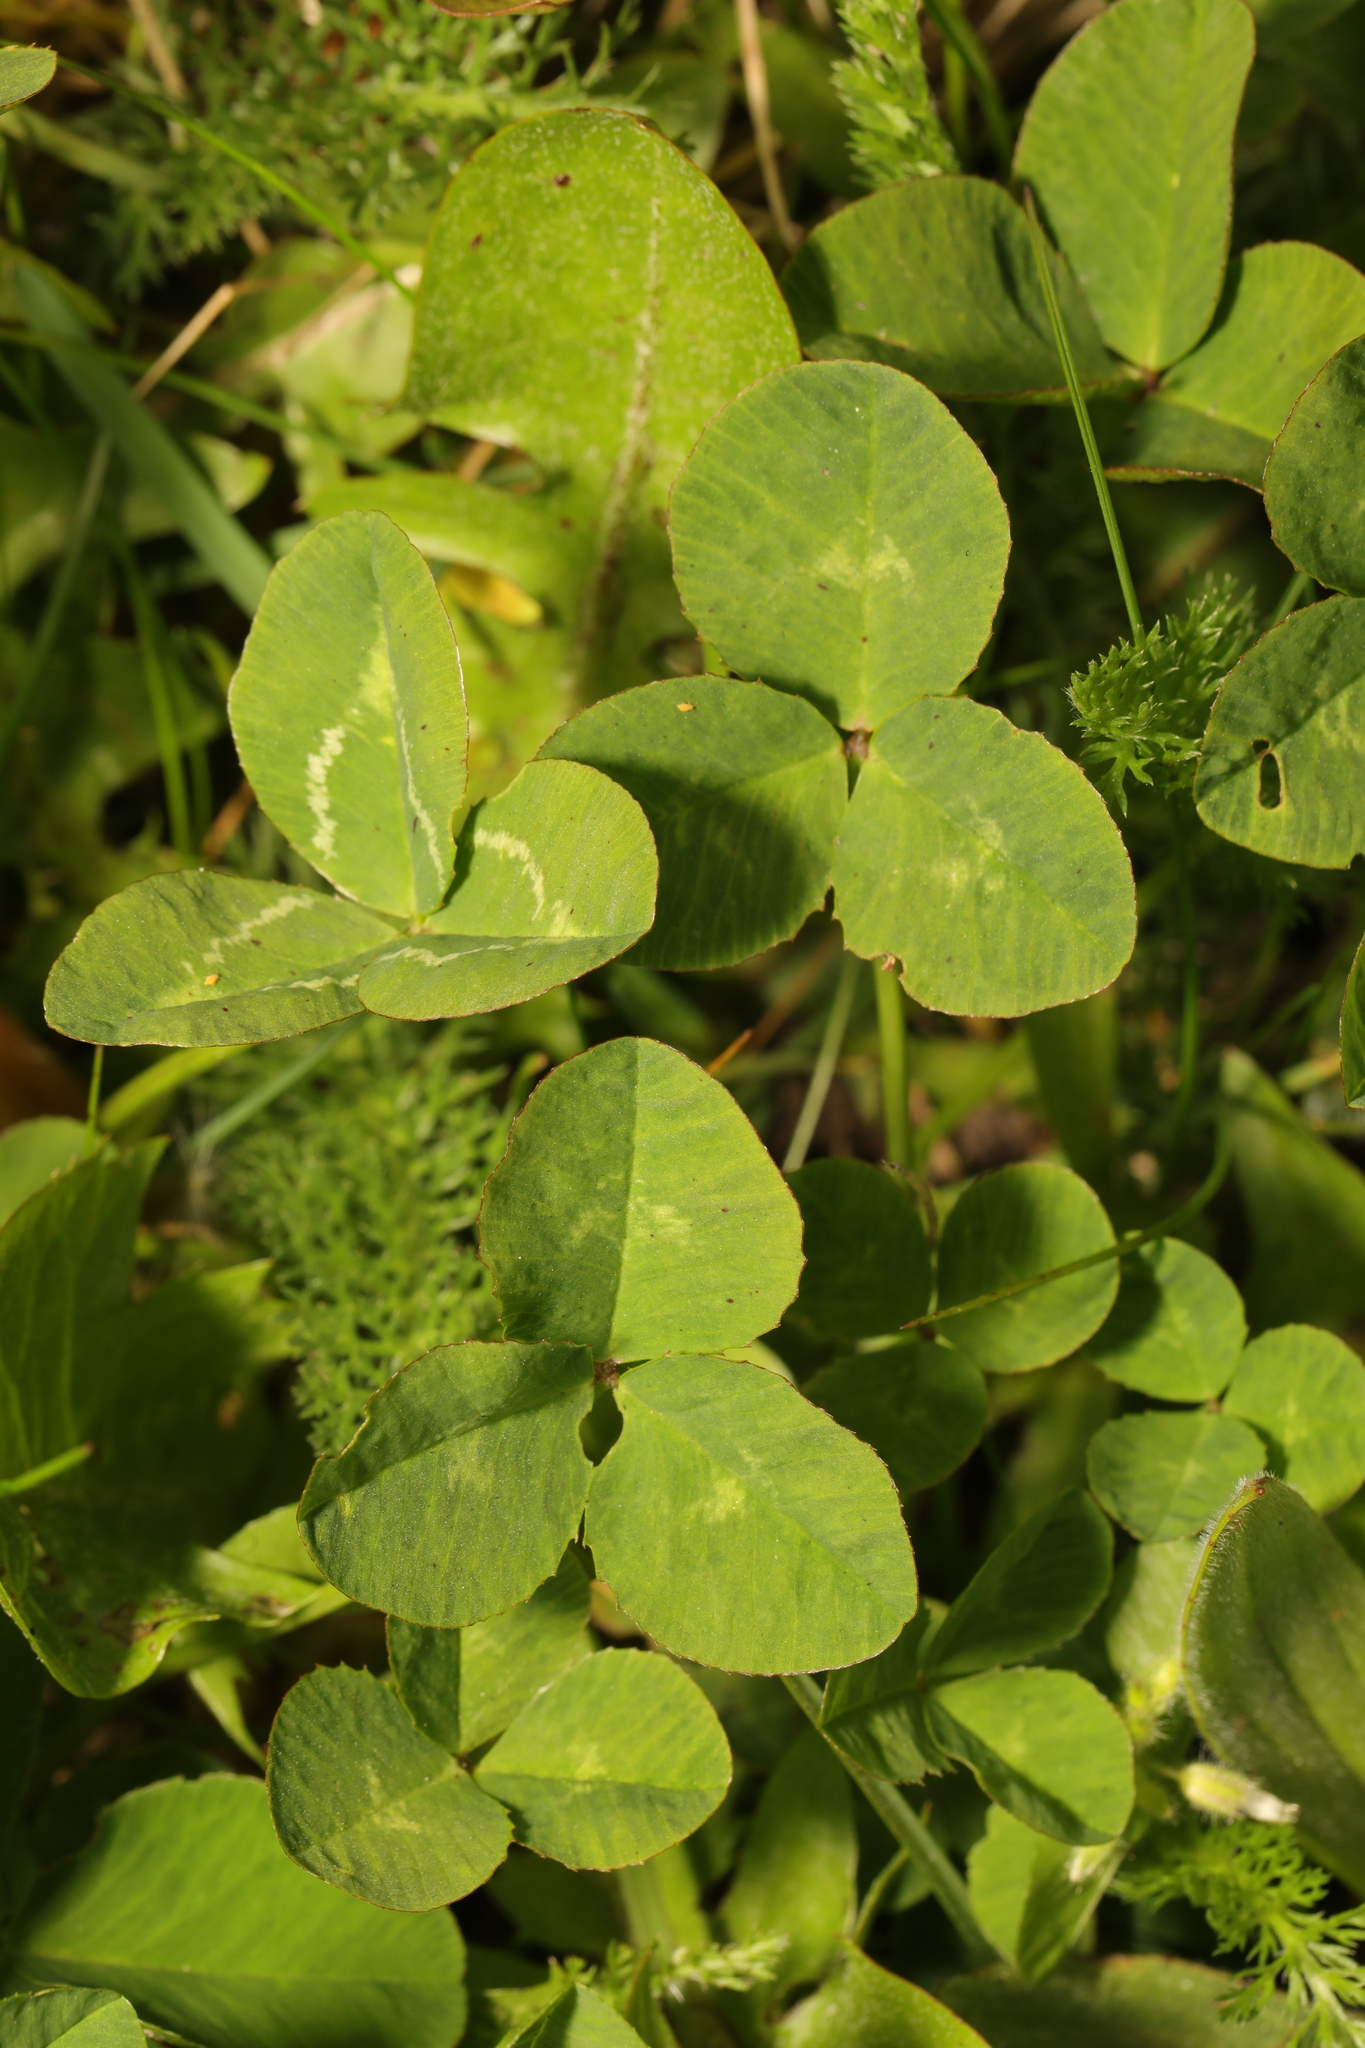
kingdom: Plantae
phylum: Tracheophyta
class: Magnoliopsida
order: Fabales
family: Fabaceae
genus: Trifolium
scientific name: Trifolium repens
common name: White clover
